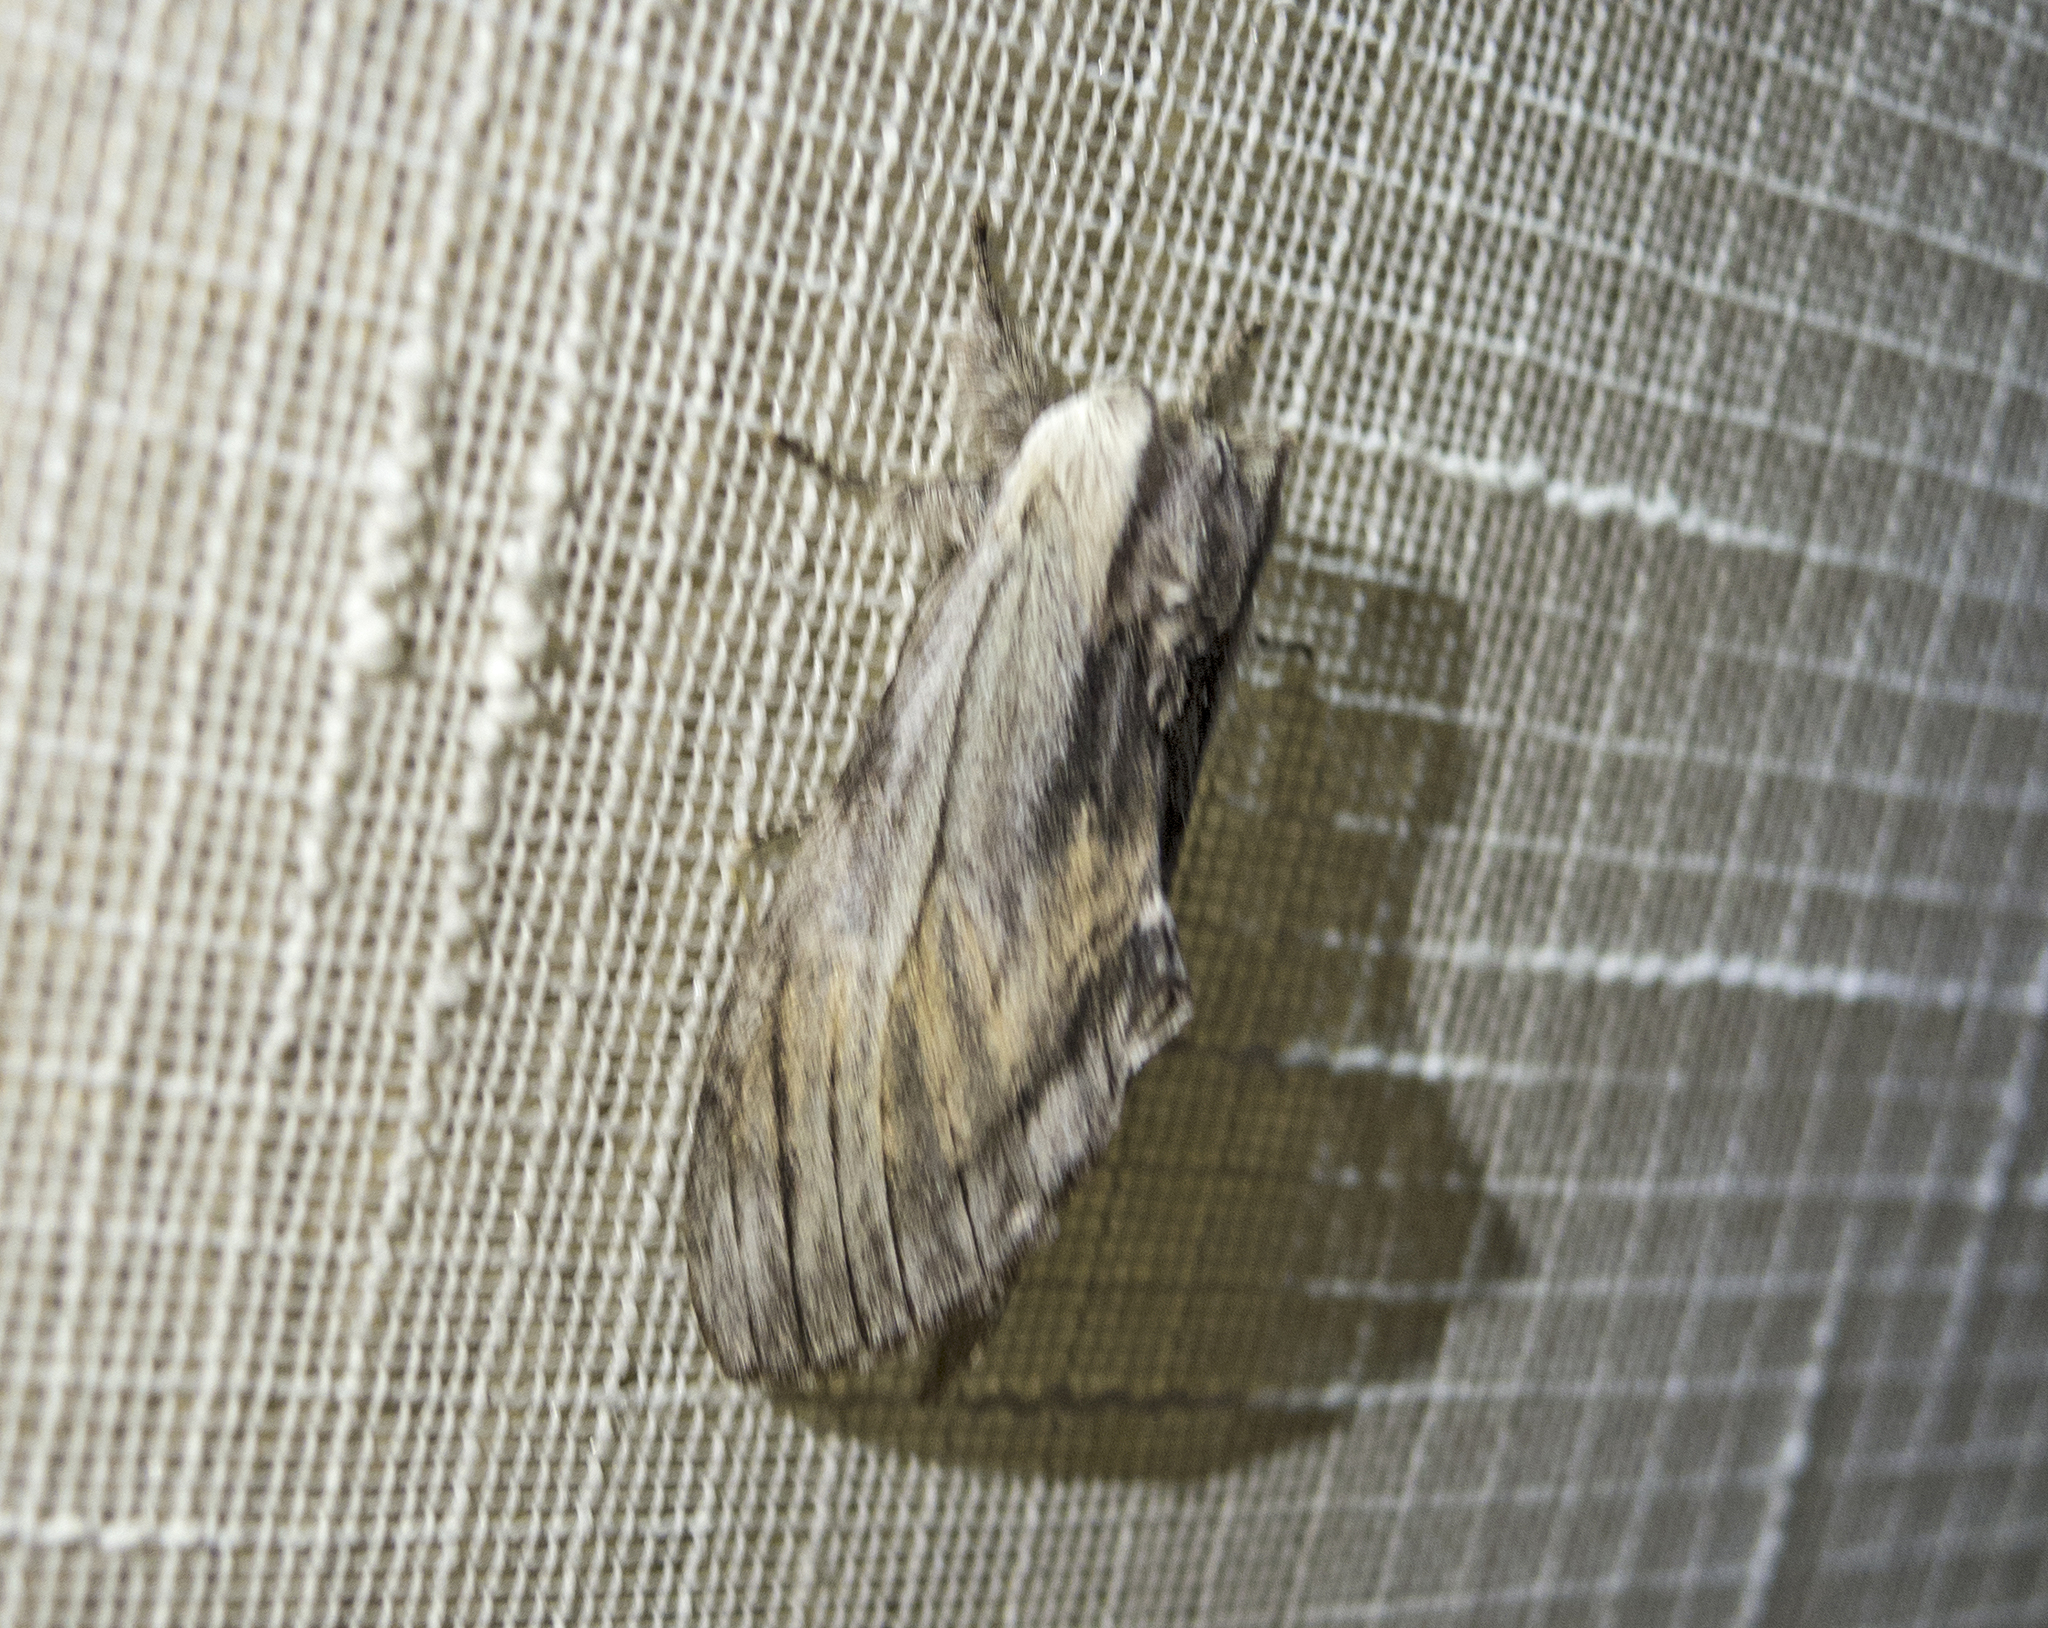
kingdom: Animalia
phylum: Arthropoda
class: Insecta
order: Lepidoptera
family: Notodontidae
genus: Harpyia
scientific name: Harpyia milhauseri
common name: Tawny prominent
